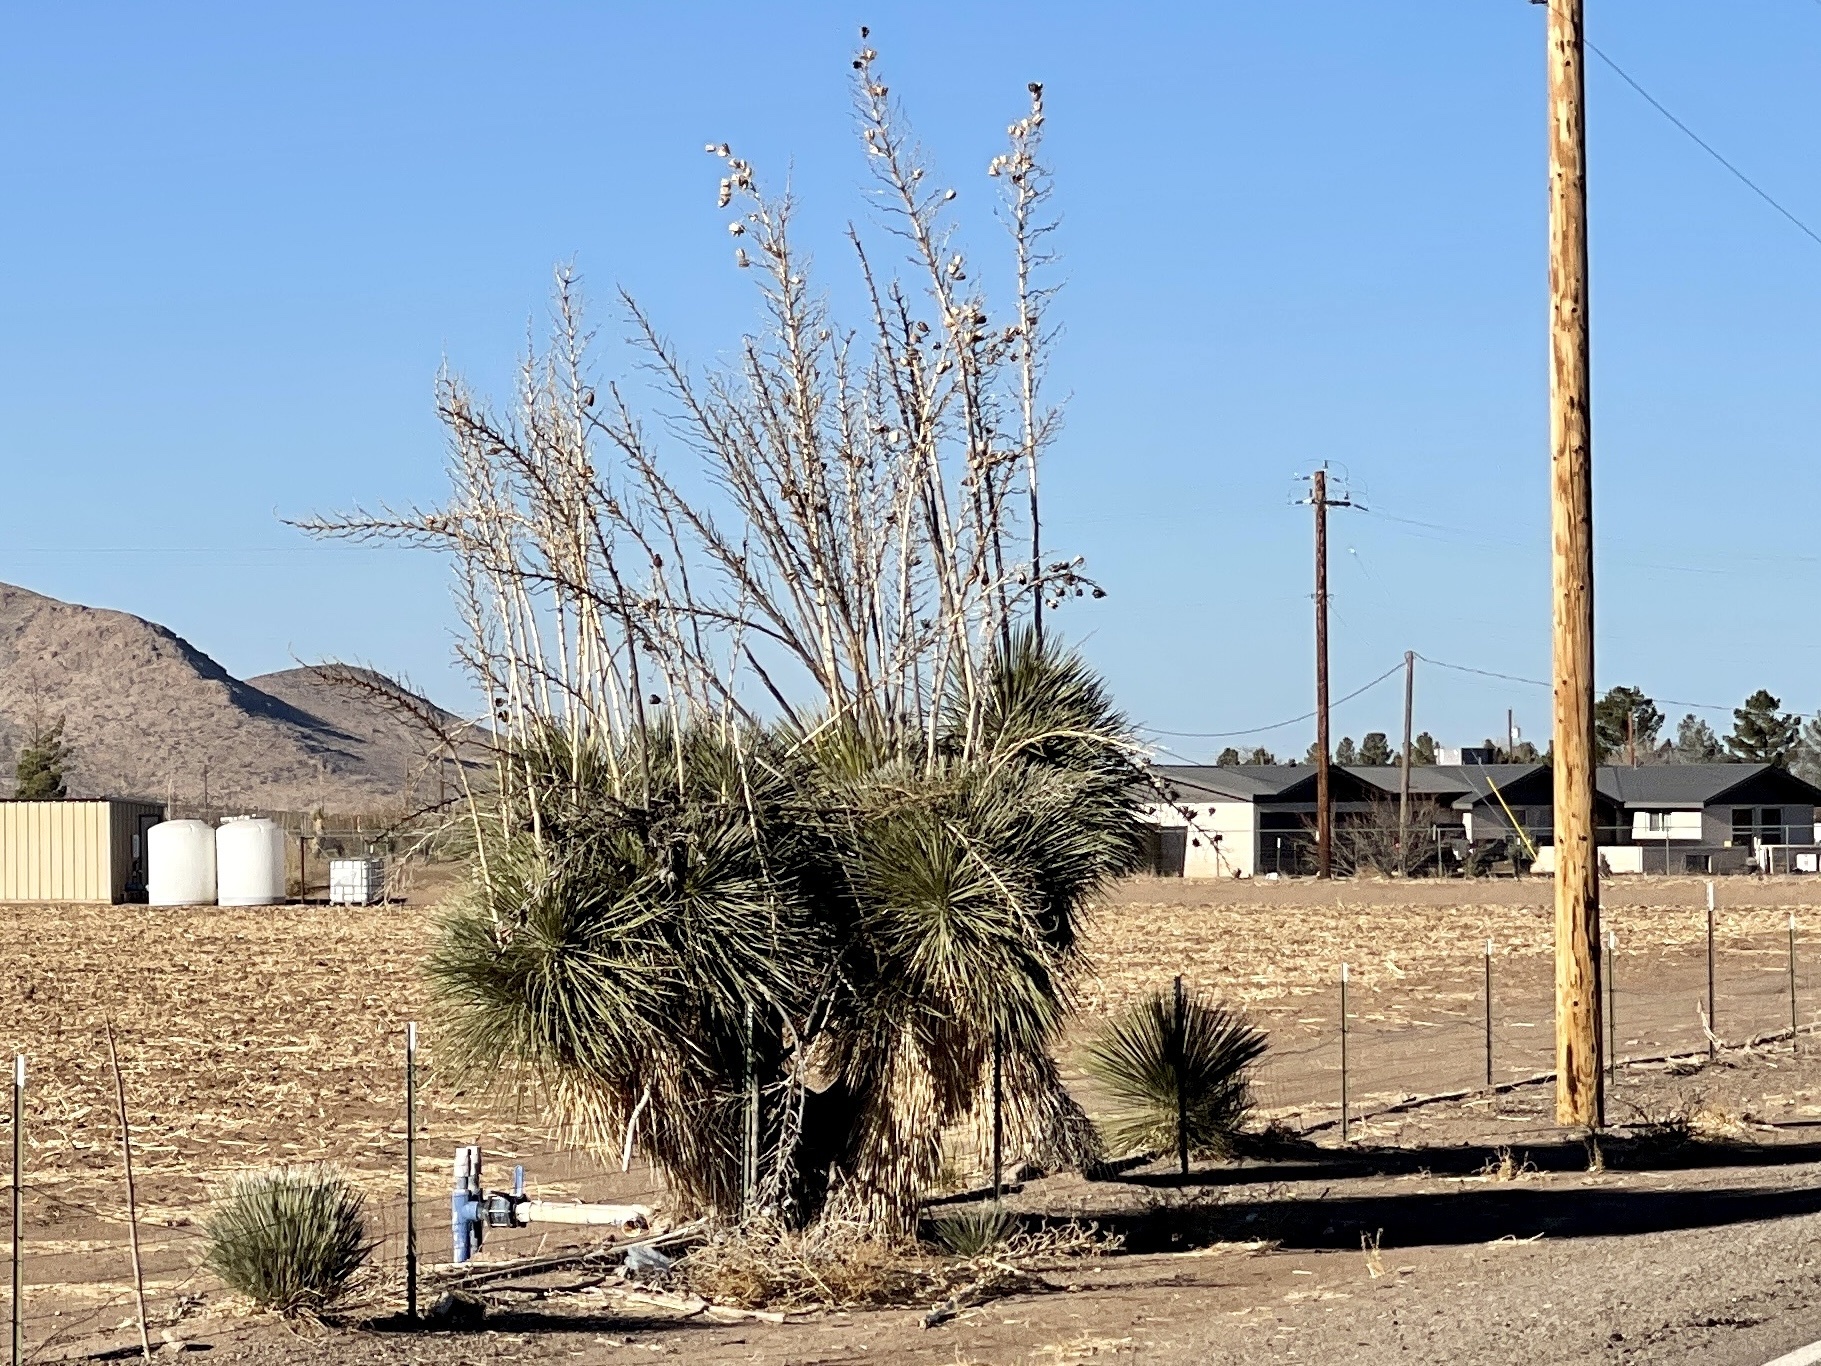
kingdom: Plantae
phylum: Tracheophyta
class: Liliopsida
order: Asparagales
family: Asparagaceae
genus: Yucca
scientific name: Yucca elata
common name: Palmella
